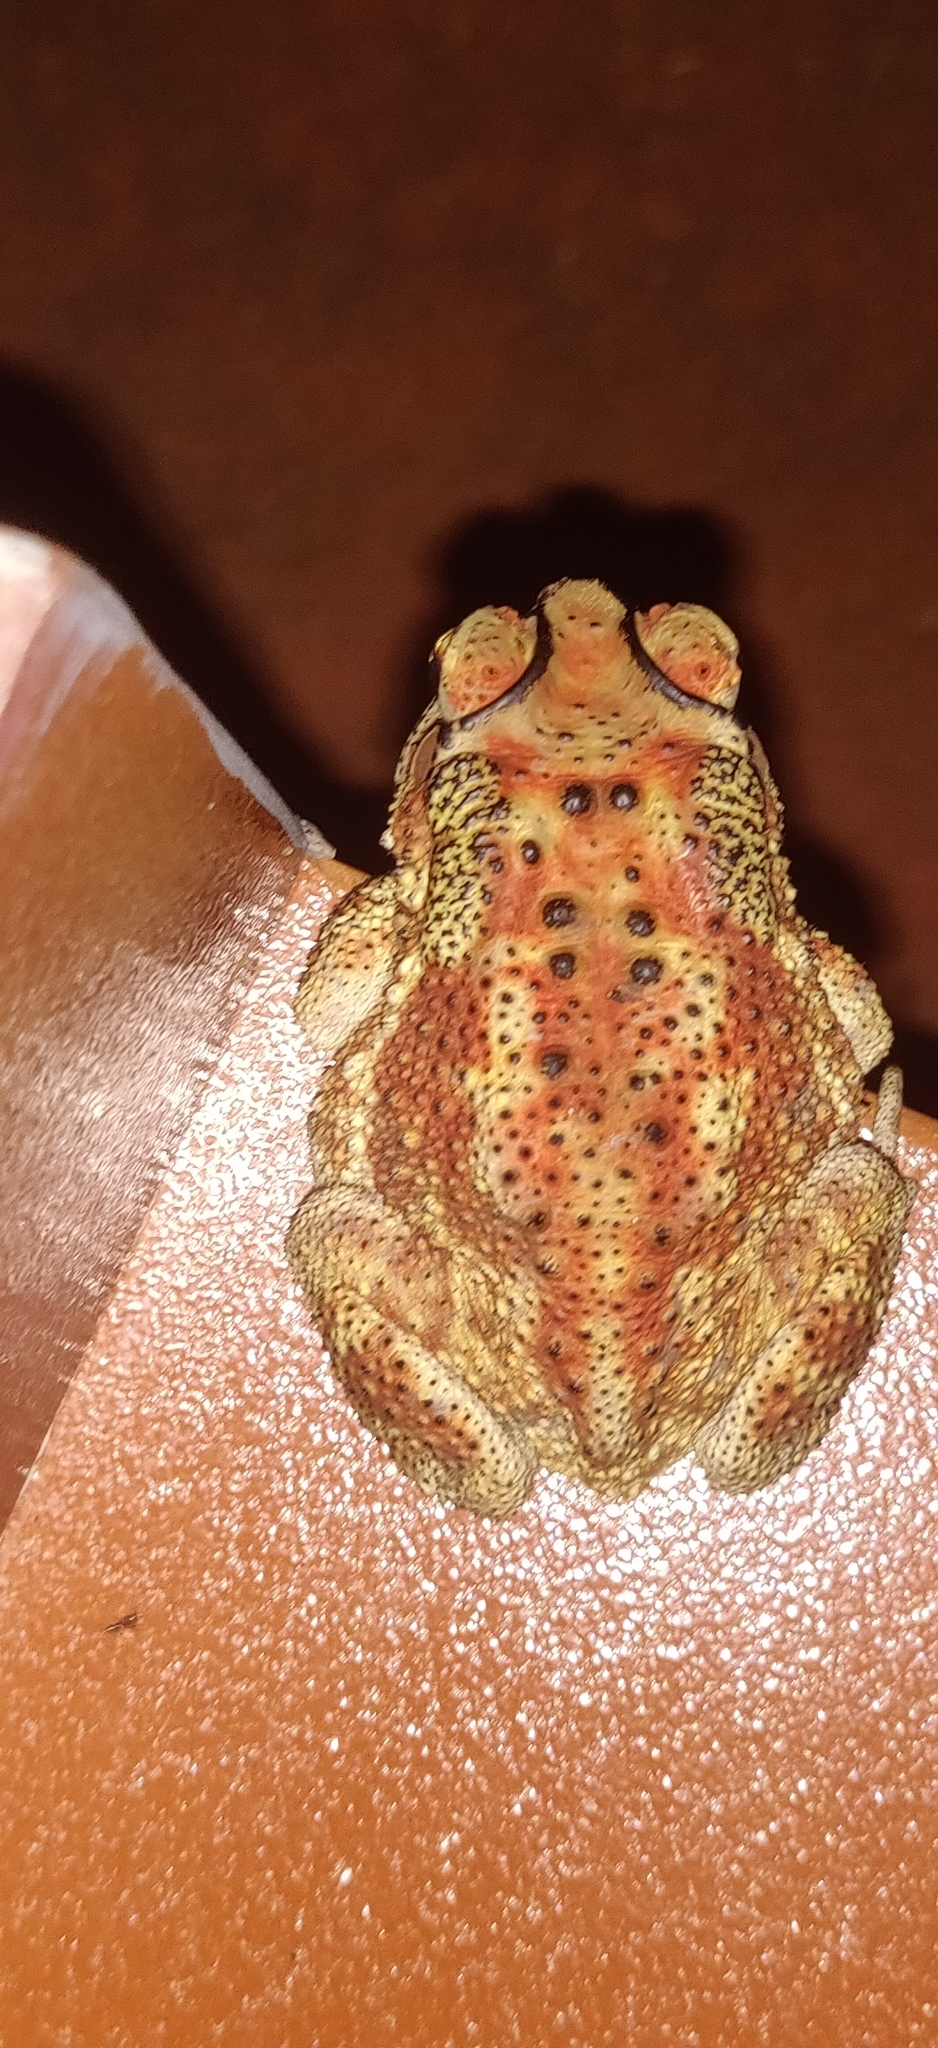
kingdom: Animalia
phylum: Chordata
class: Amphibia
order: Anura
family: Bufonidae
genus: Duttaphrynus
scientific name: Duttaphrynus melanostictus
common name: Common sunda toad
